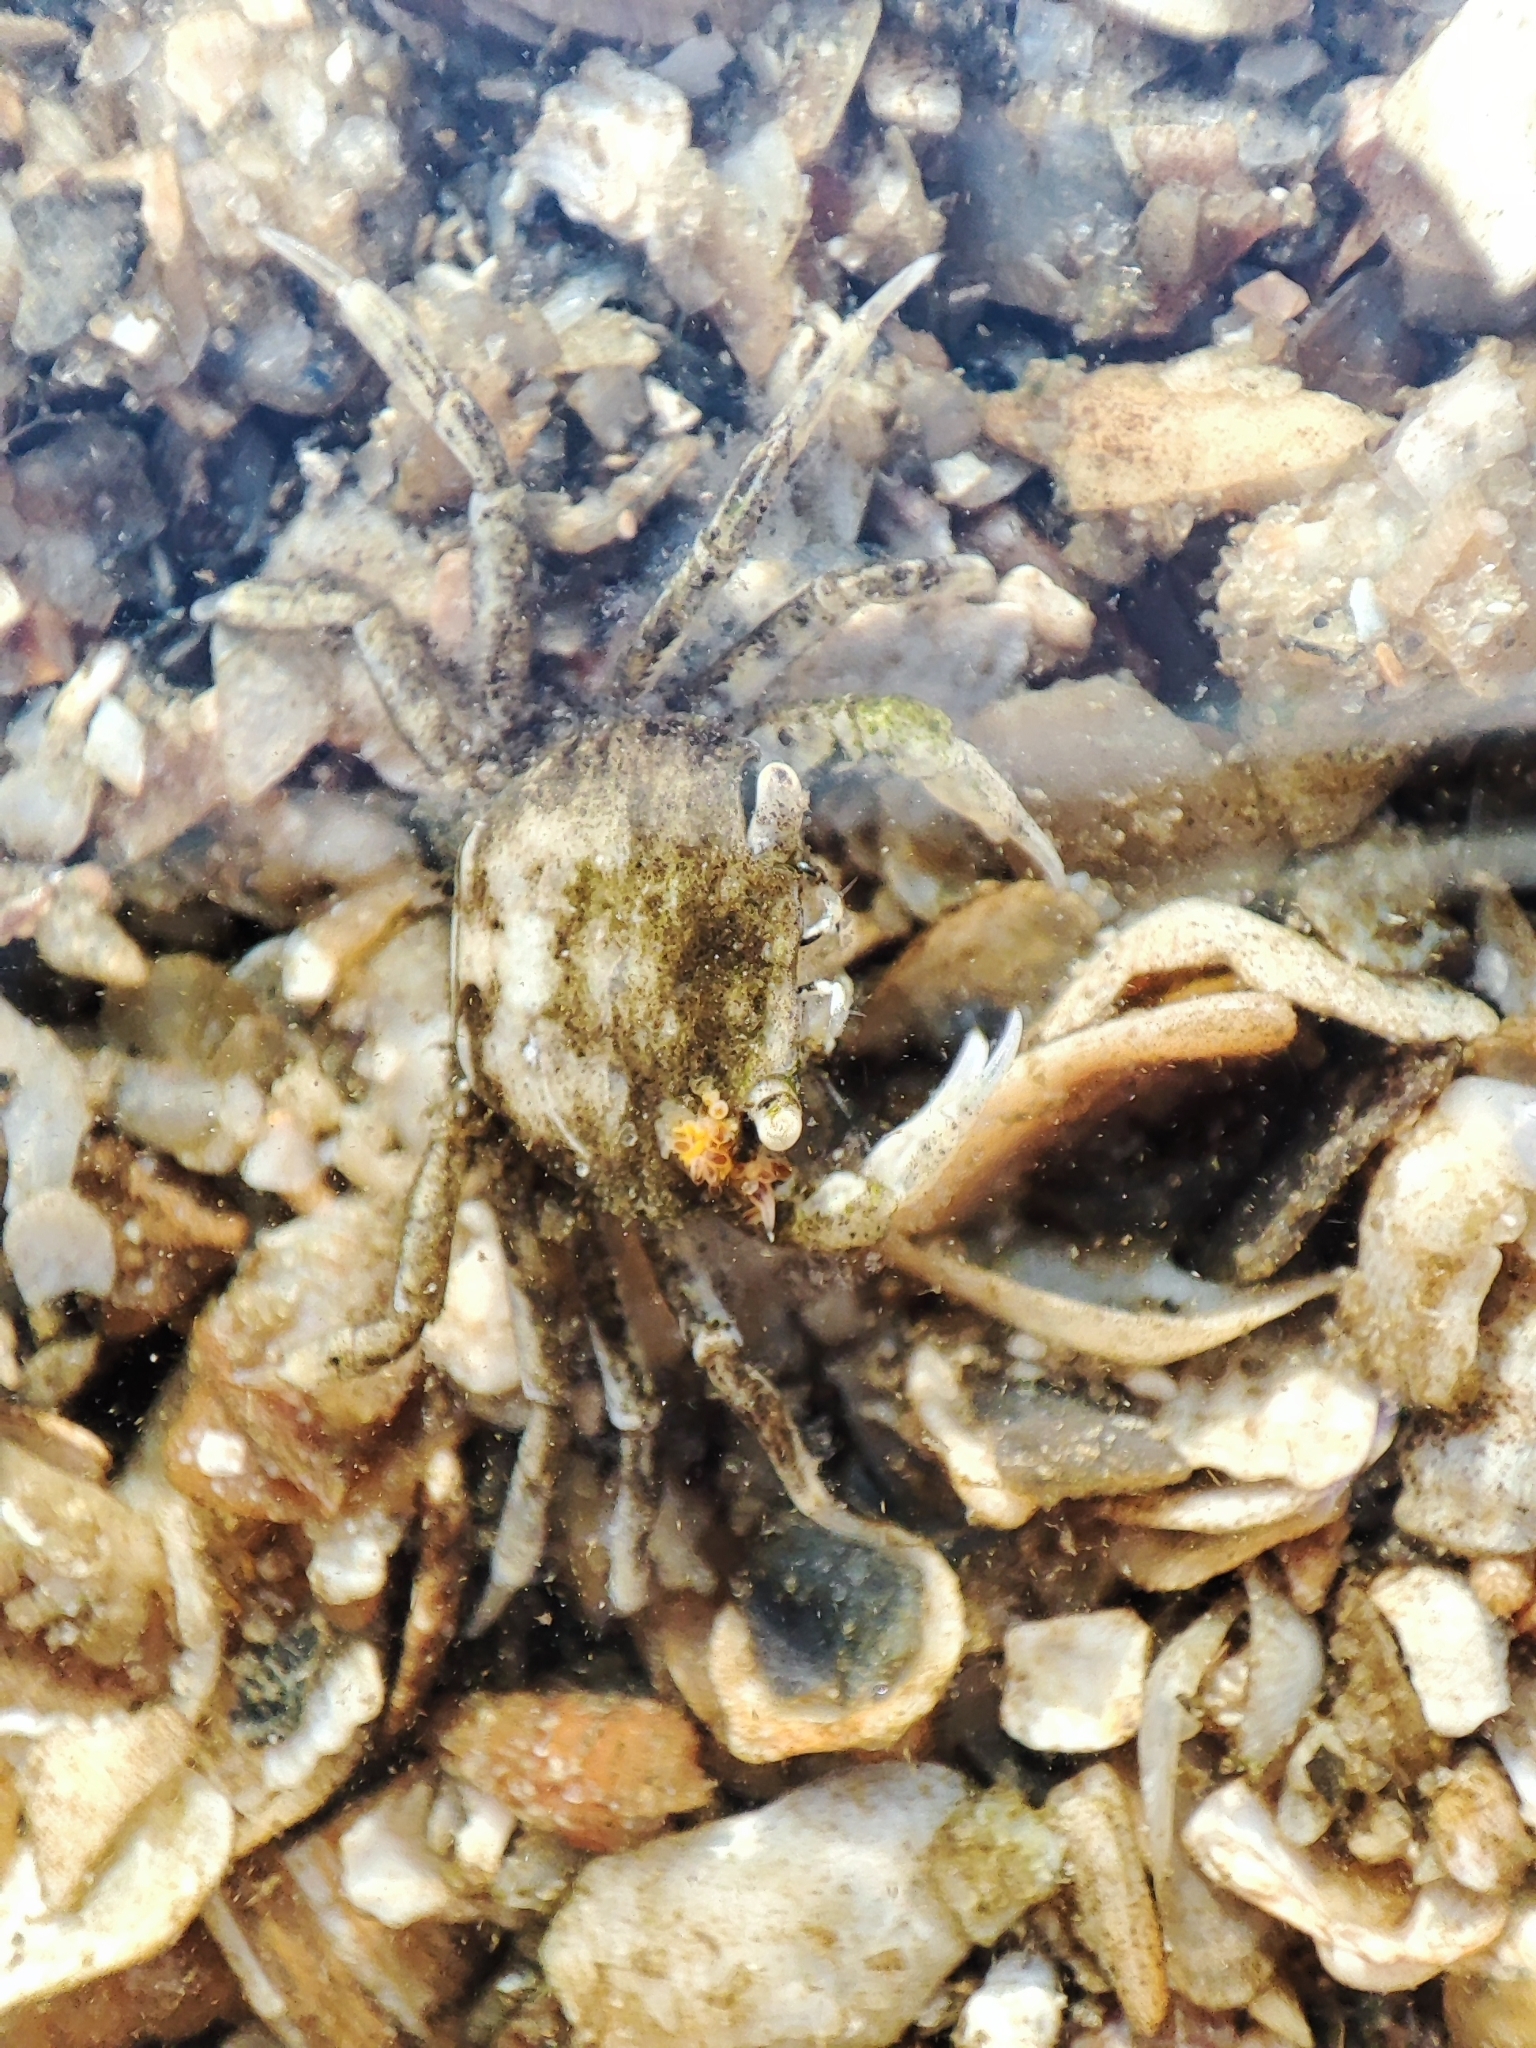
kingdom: Animalia
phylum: Arthropoda
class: Malacostraca
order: Decapoda
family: Varunidae
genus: Brachynotus
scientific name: Brachynotus sexdentatus
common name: Mediterranean crab
